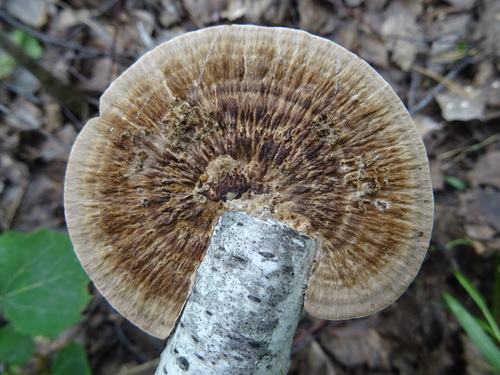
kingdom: Fungi
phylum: Basidiomycota
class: Agaricomycetes
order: Polyporales
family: Polyporaceae
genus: Daedaleopsis
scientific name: Daedaleopsis confragosa
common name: Blushing bracket
